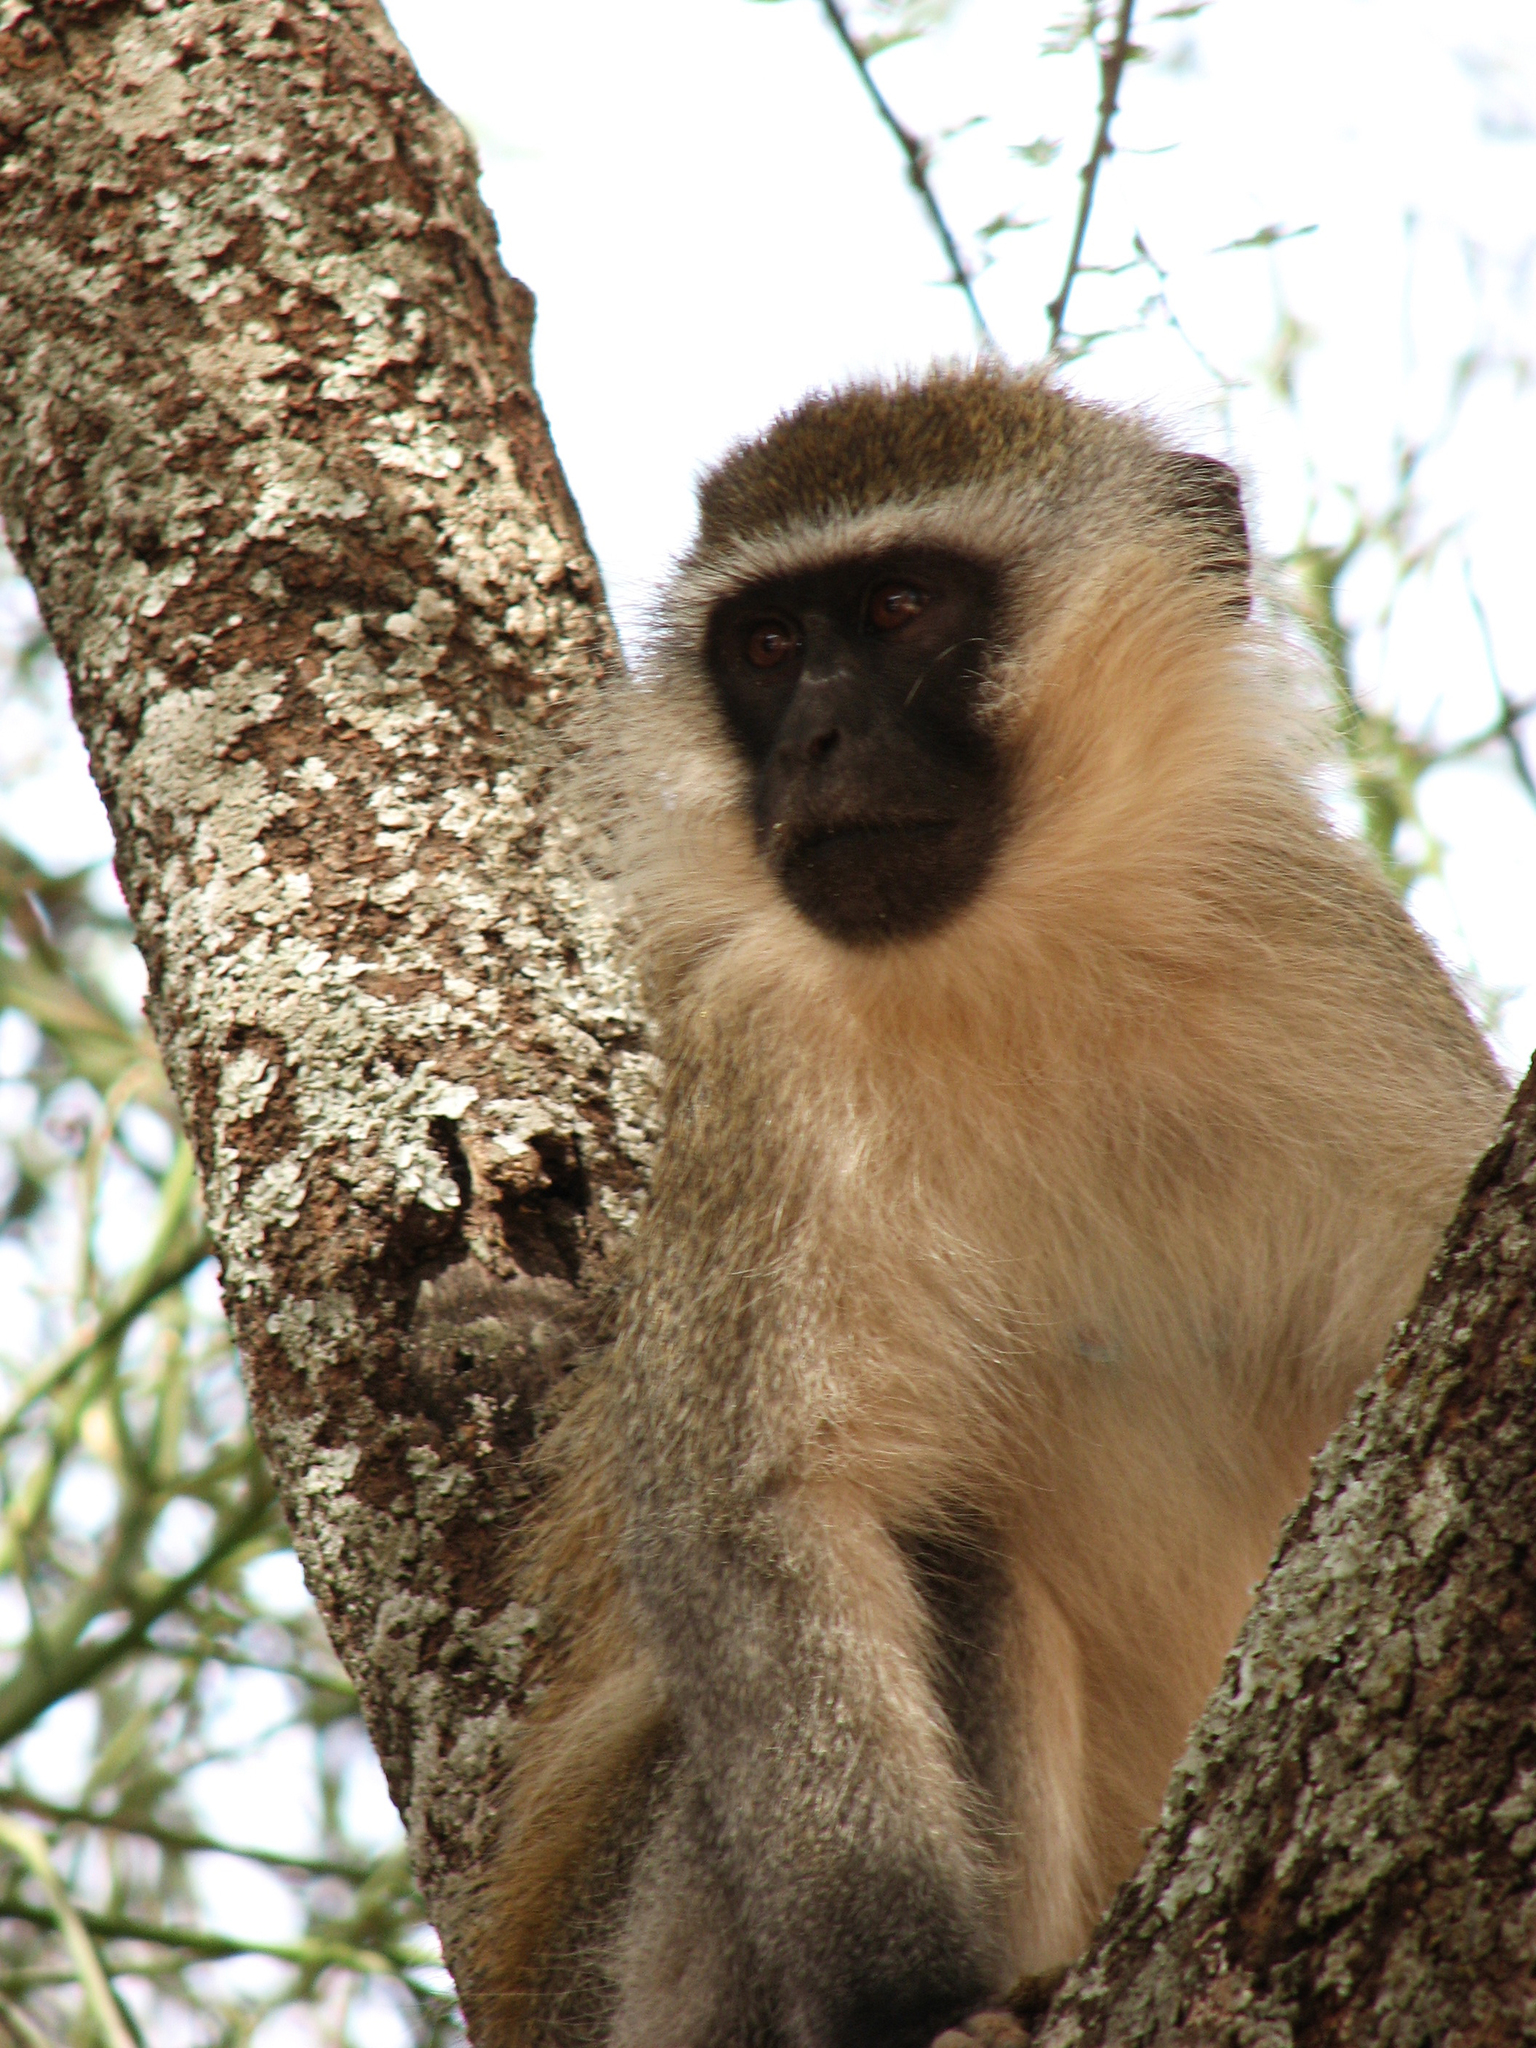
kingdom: Animalia
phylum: Chordata
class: Mammalia
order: Primates
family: Cercopithecidae
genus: Chlorocebus
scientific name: Chlorocebus aethiops
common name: Grivet
